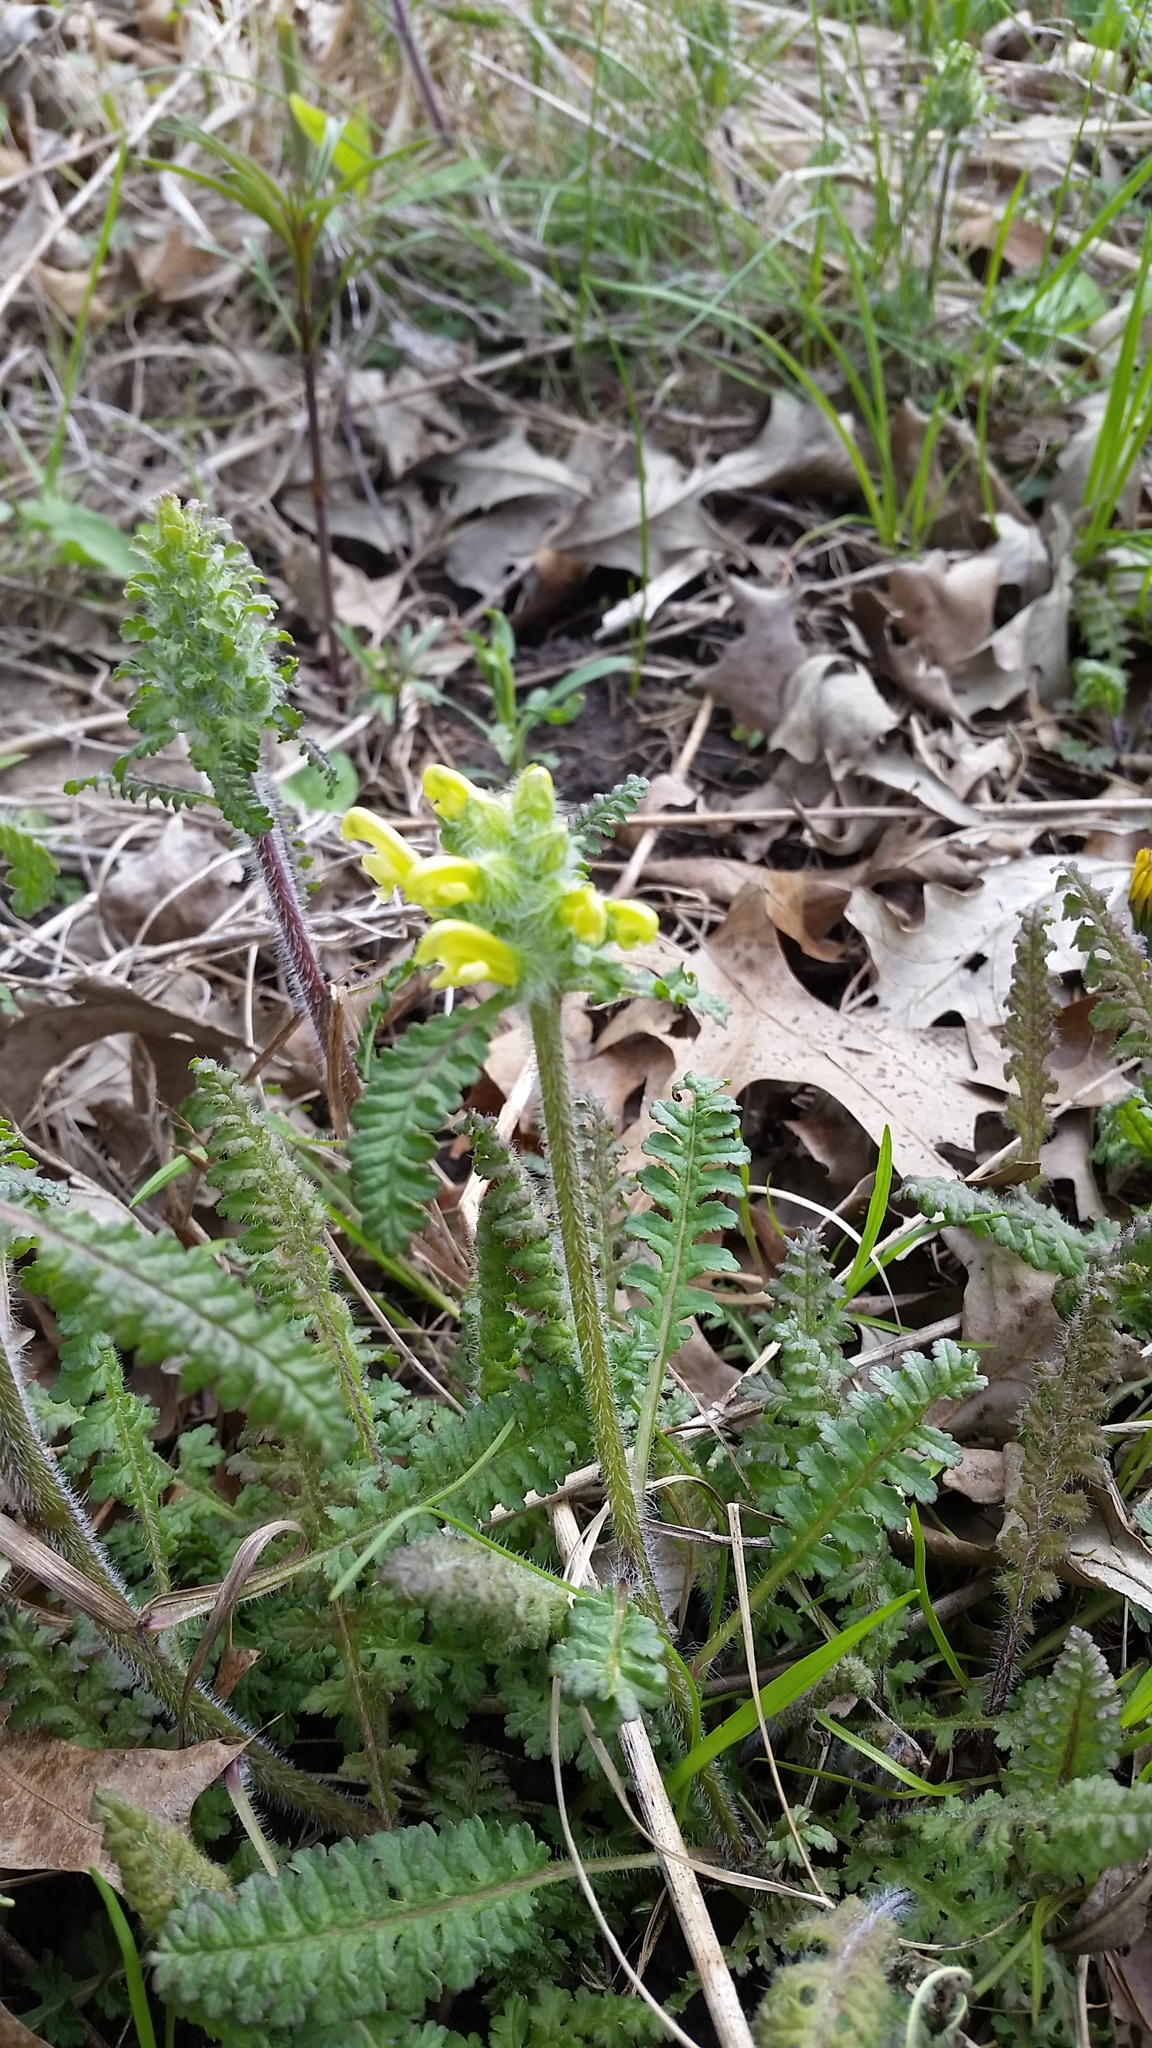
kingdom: Plantae
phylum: Tracheophyta
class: Magnoliopsida
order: Lamiales
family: Orobanchaceae
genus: Pedicularis
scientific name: Pedicularis canadensis
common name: Early lousewort
